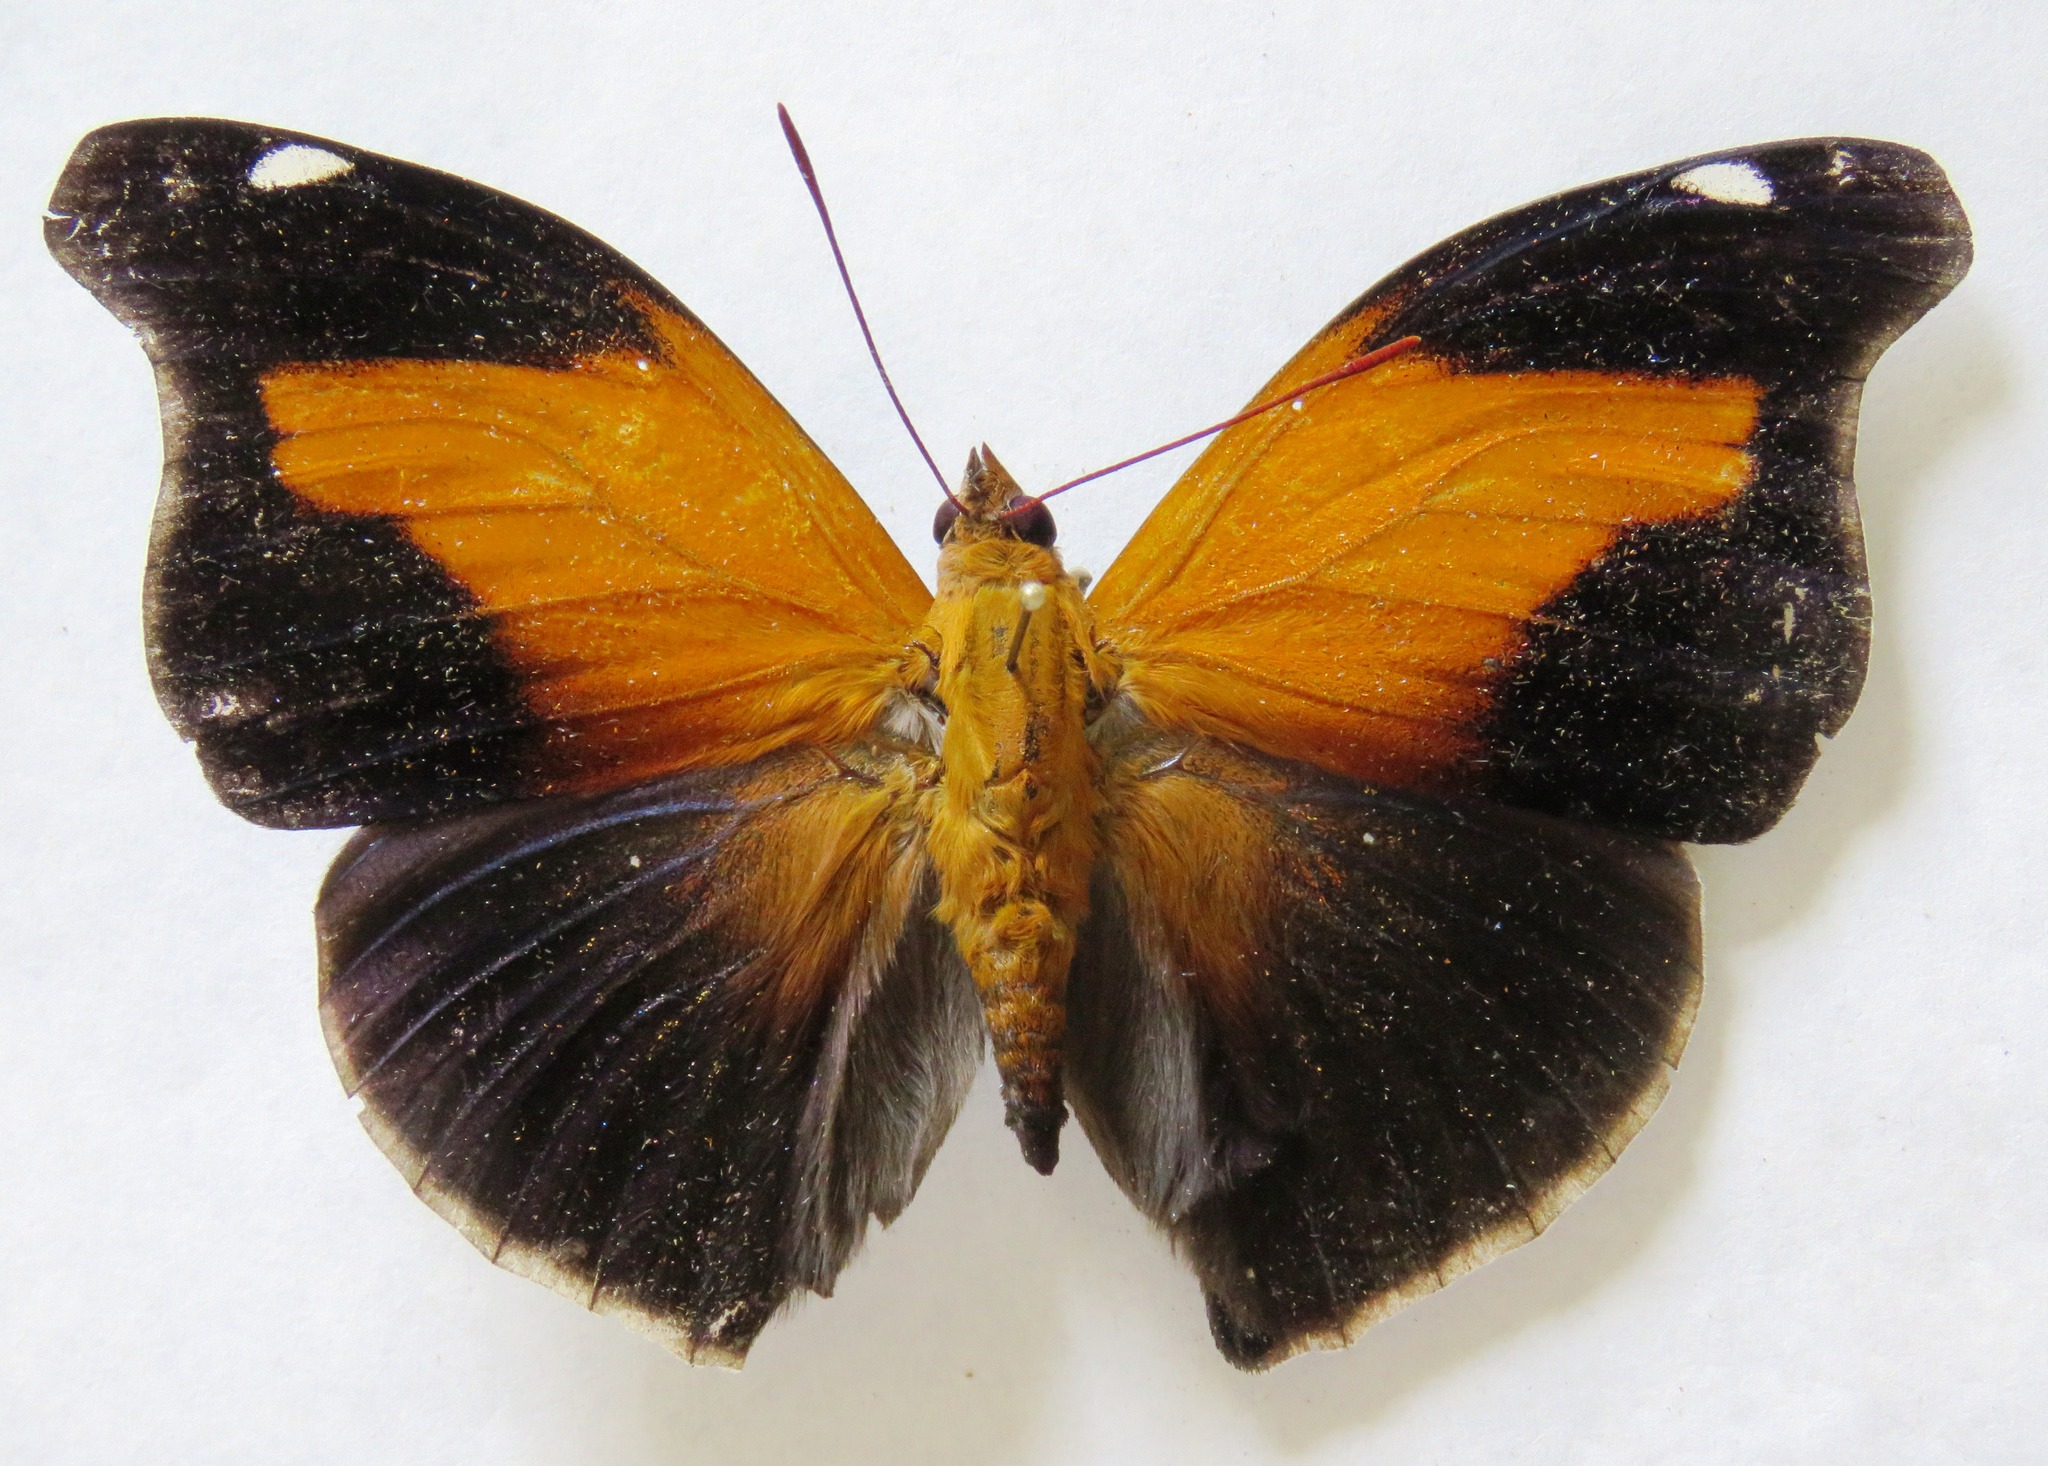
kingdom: Animalia
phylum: Arthropoda
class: Insecta
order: Lepidoptera
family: Nymphalidae
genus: Historis
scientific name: Historis odius
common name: Orion cecropian
